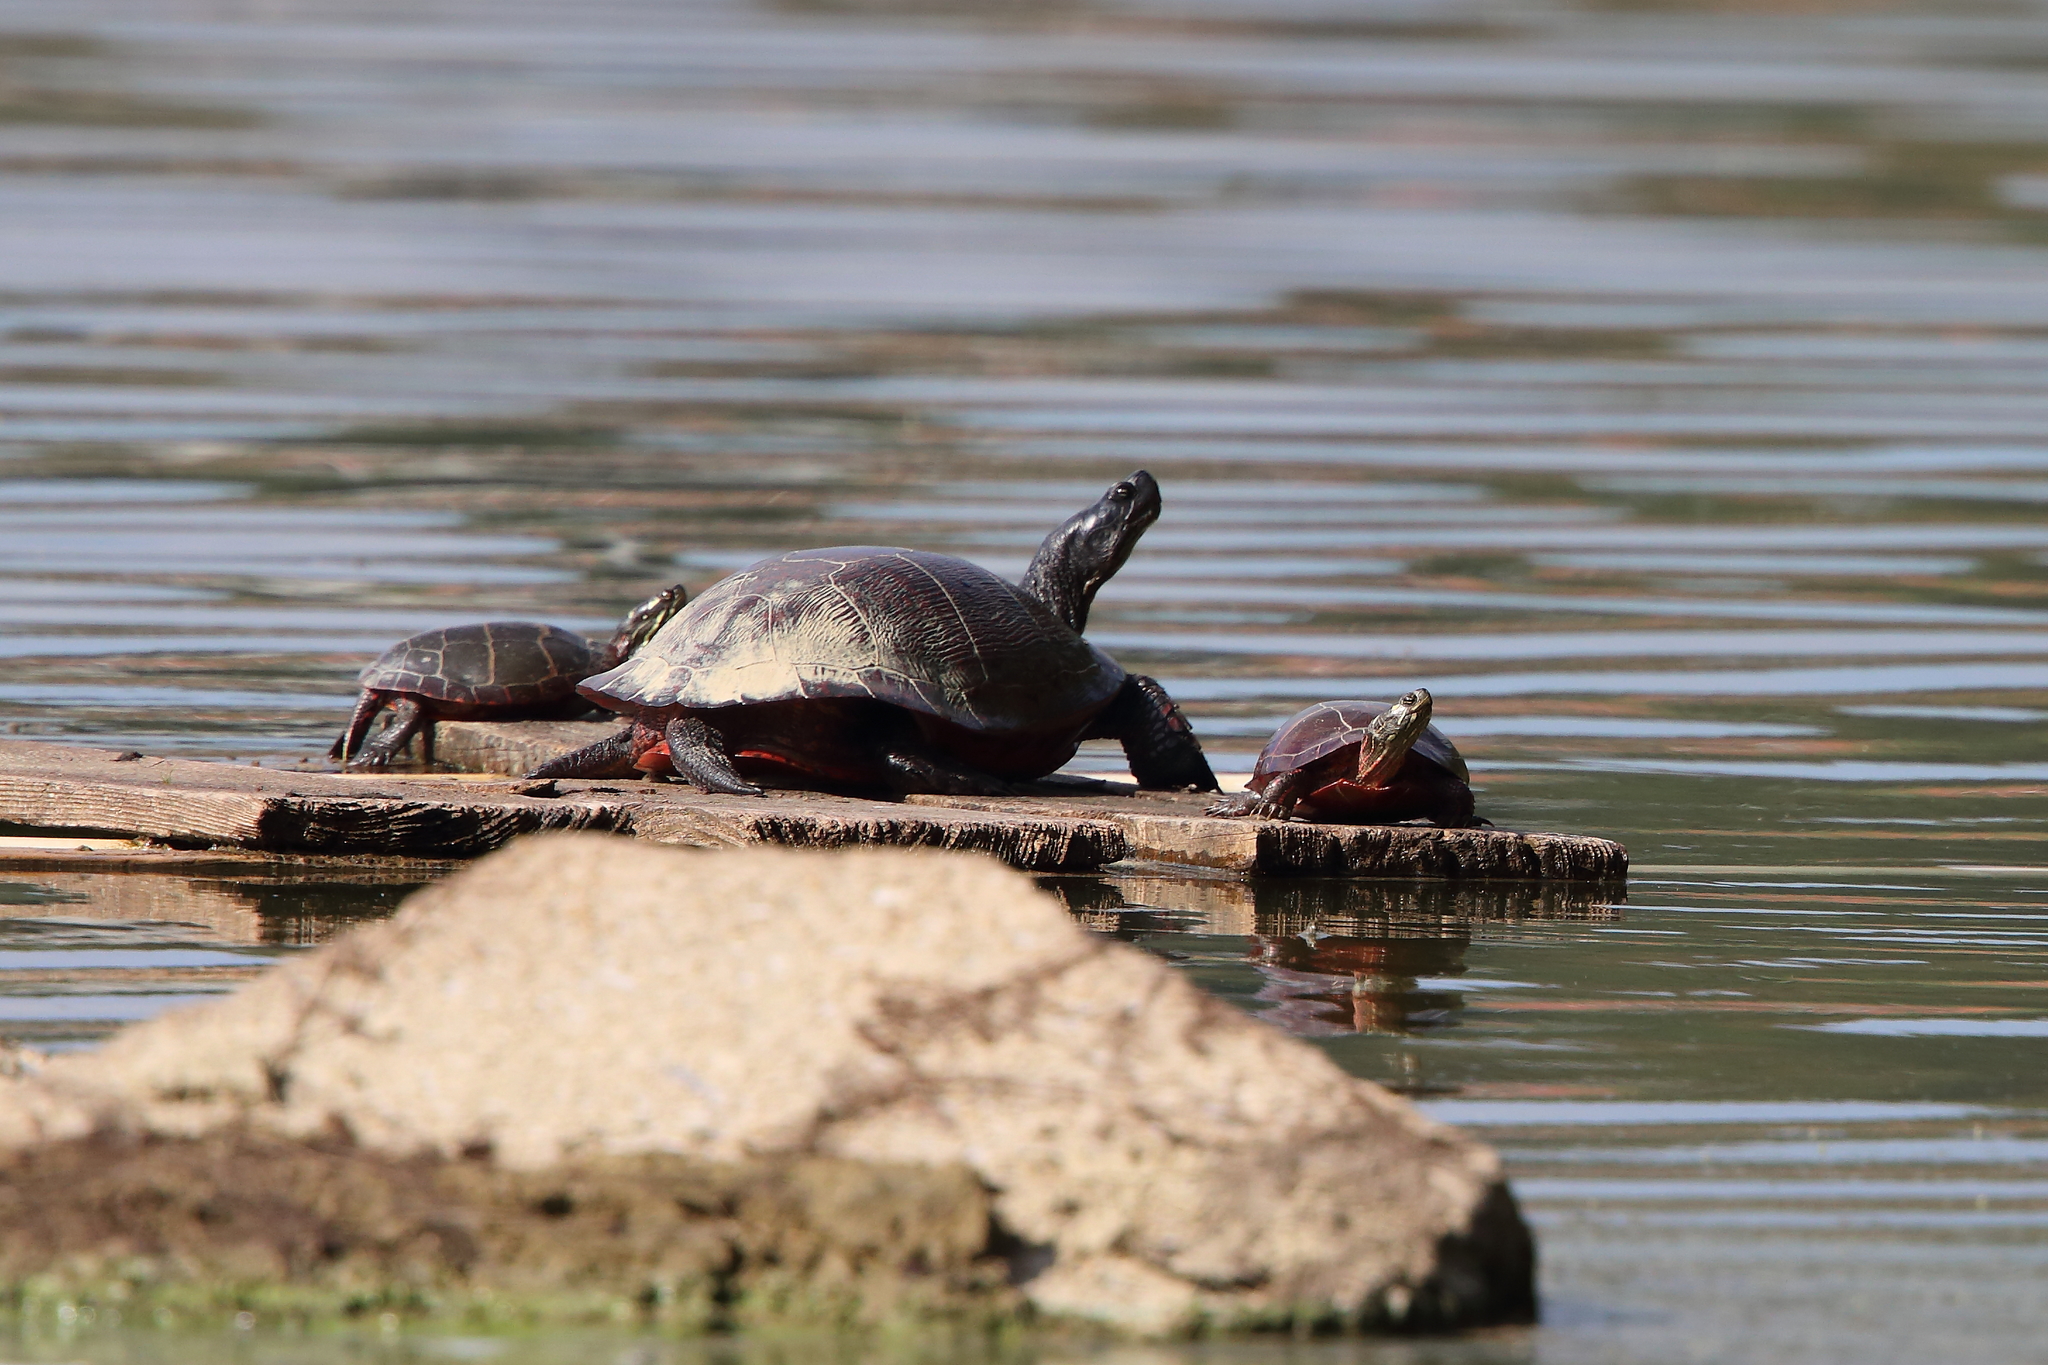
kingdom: Animalia
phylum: Chordata
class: Testudines
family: Emydidae
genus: Pseudemys
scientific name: Pseudemys rubriventris
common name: American red-bellied turtle
